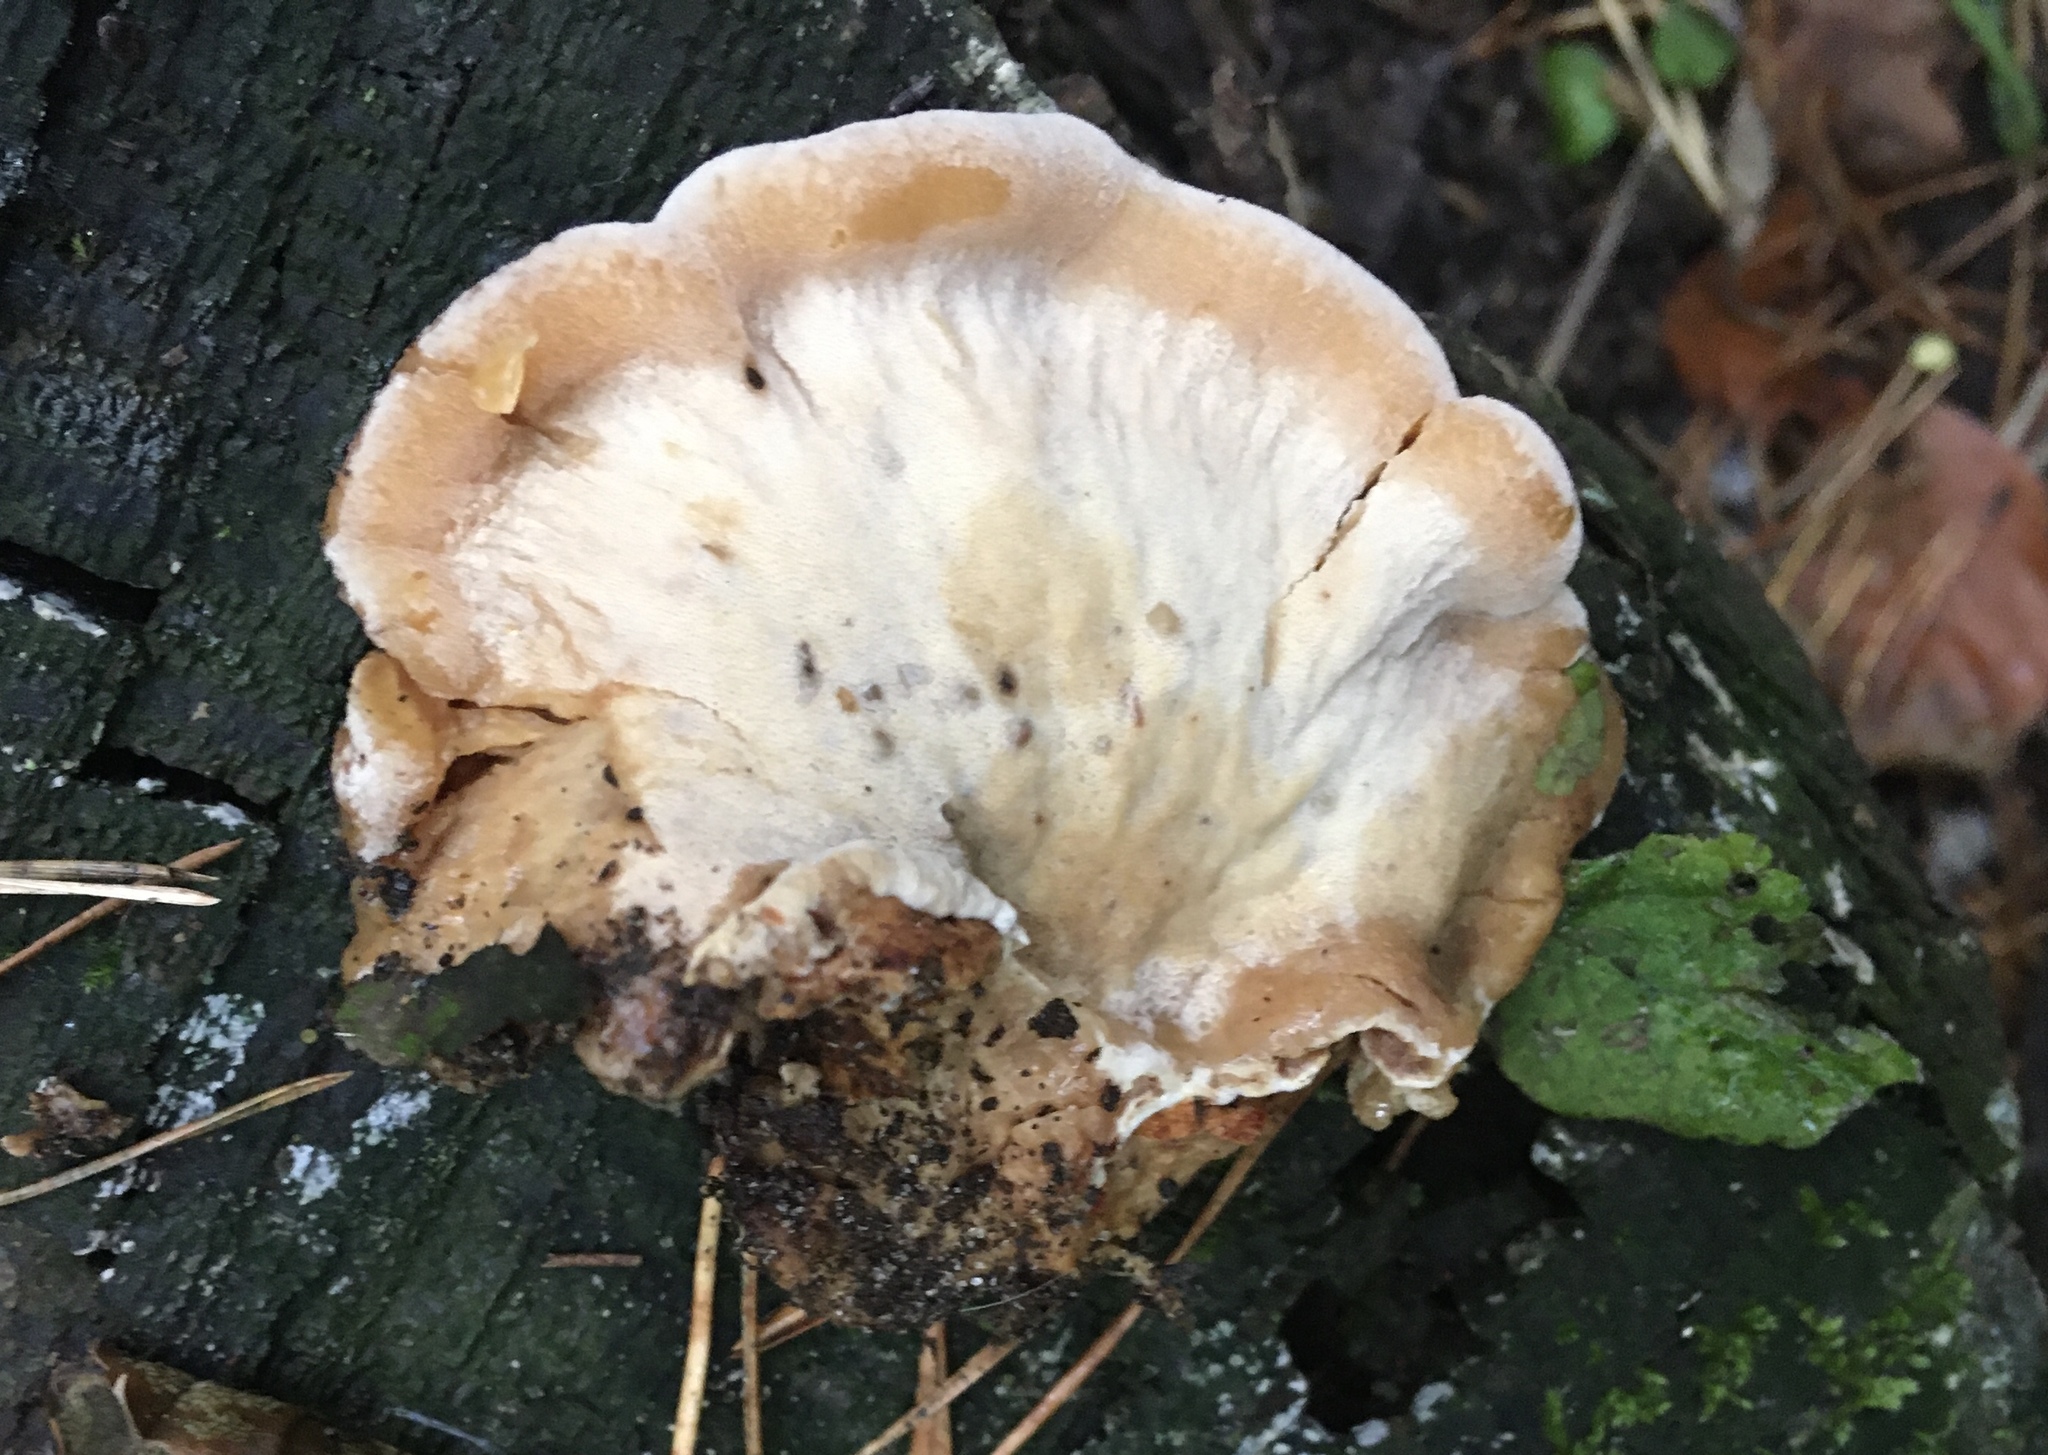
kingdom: Fungi
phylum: Basidiomycota
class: Agaricomycetes
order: Polyporales
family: Ischnodermataceae
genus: Ischnoderma
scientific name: Ischnoderma resinosum
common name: Resinous polypore
